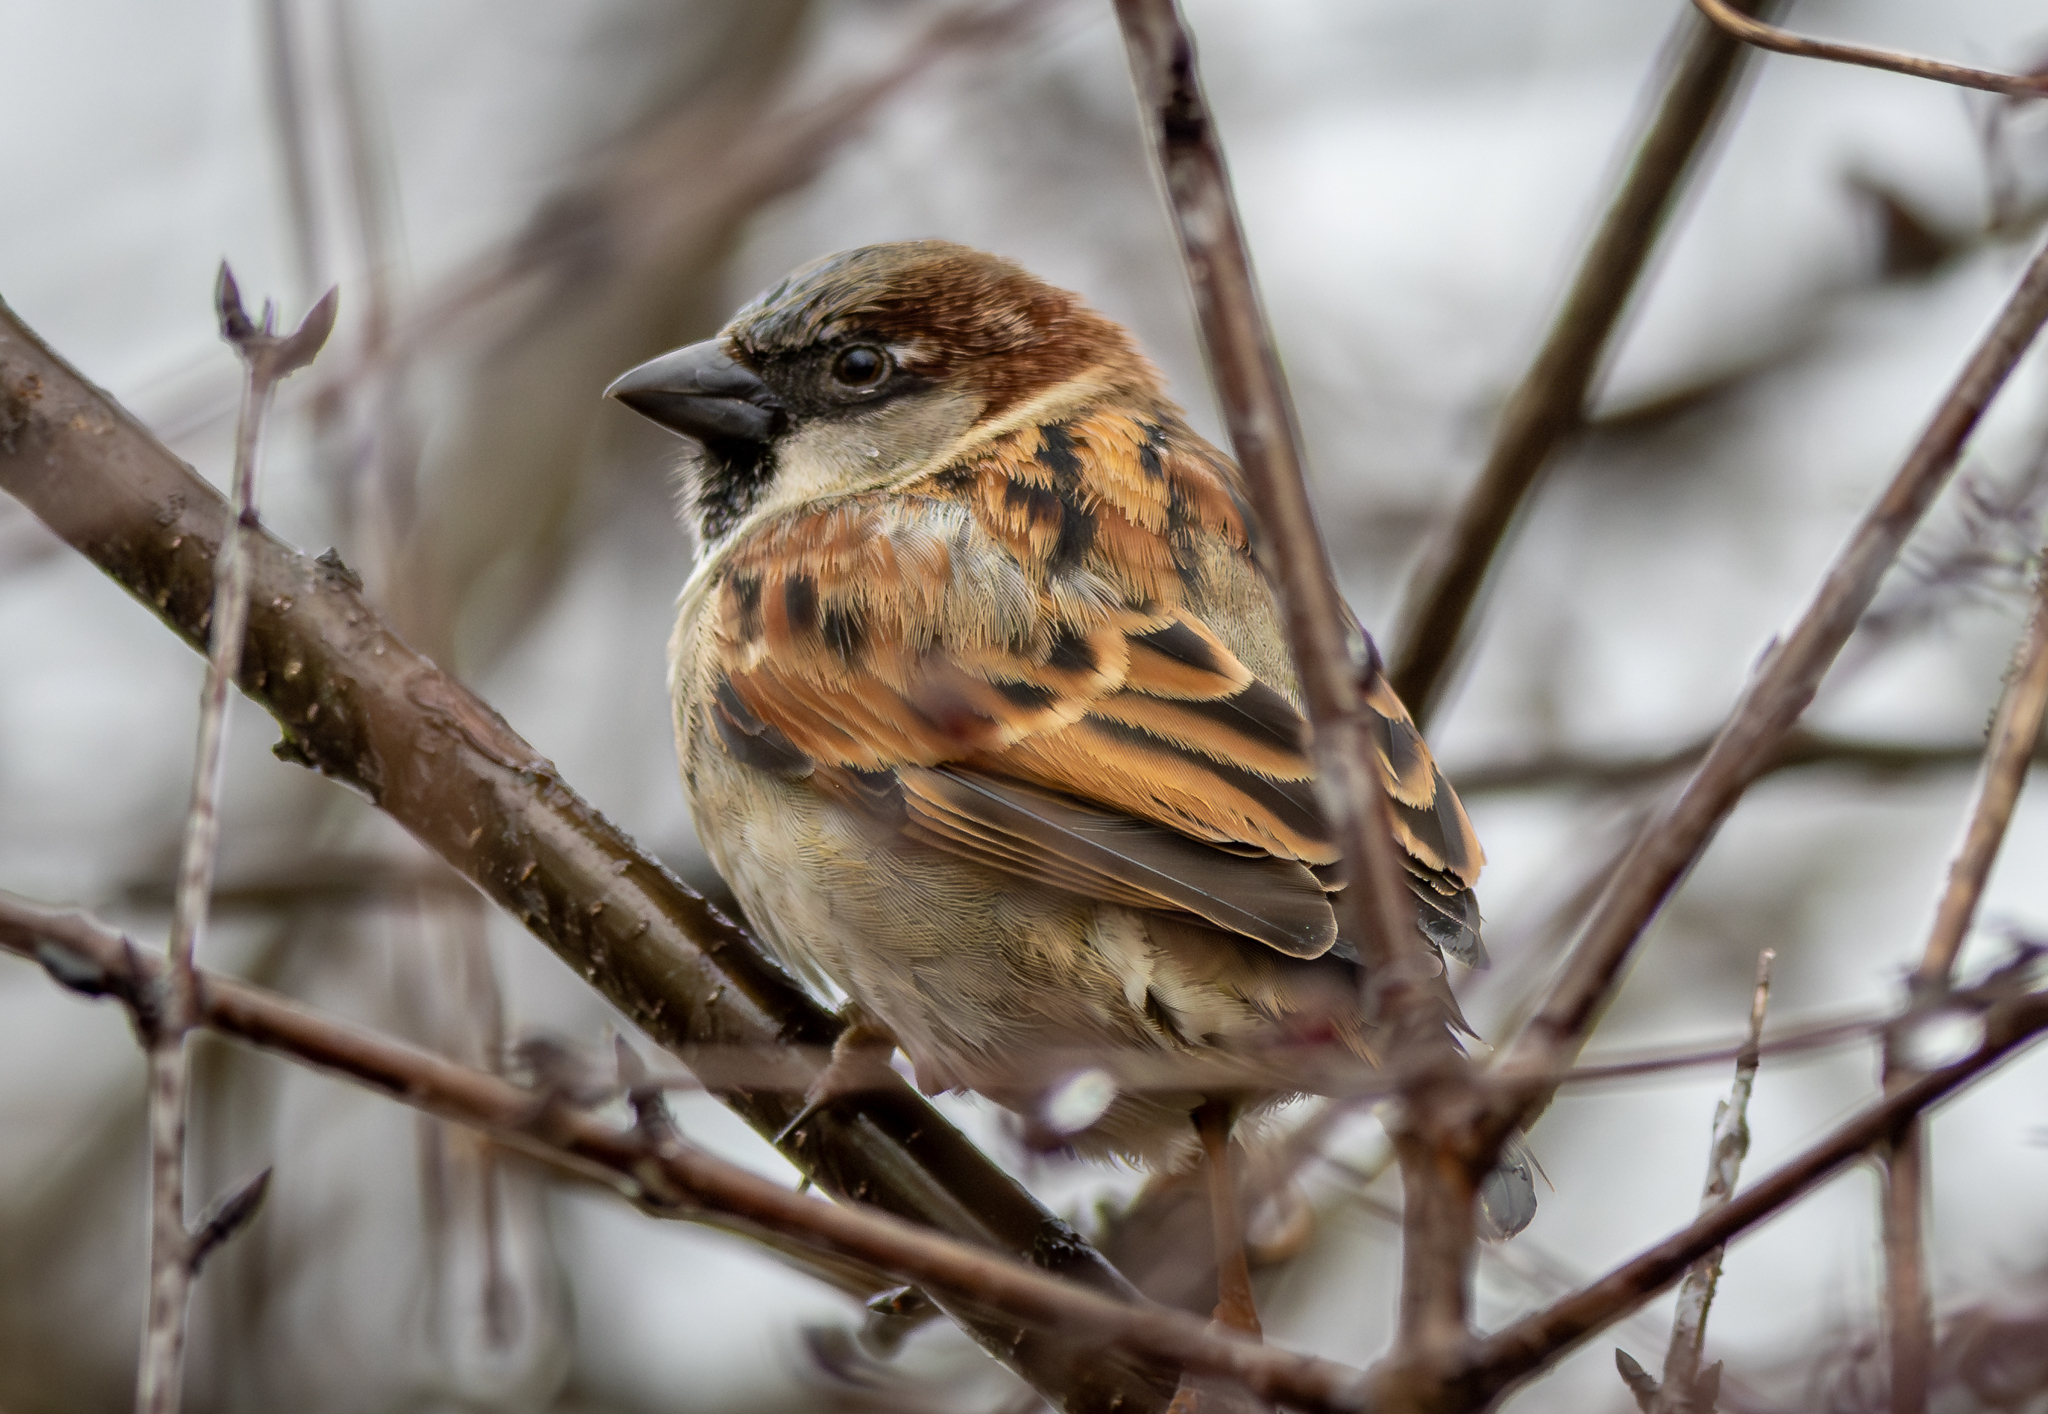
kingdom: Animalia
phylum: Chordata
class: Aves
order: Passeriformes
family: Passeridae
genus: Passer
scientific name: Passer domesticus
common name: House sparrow
